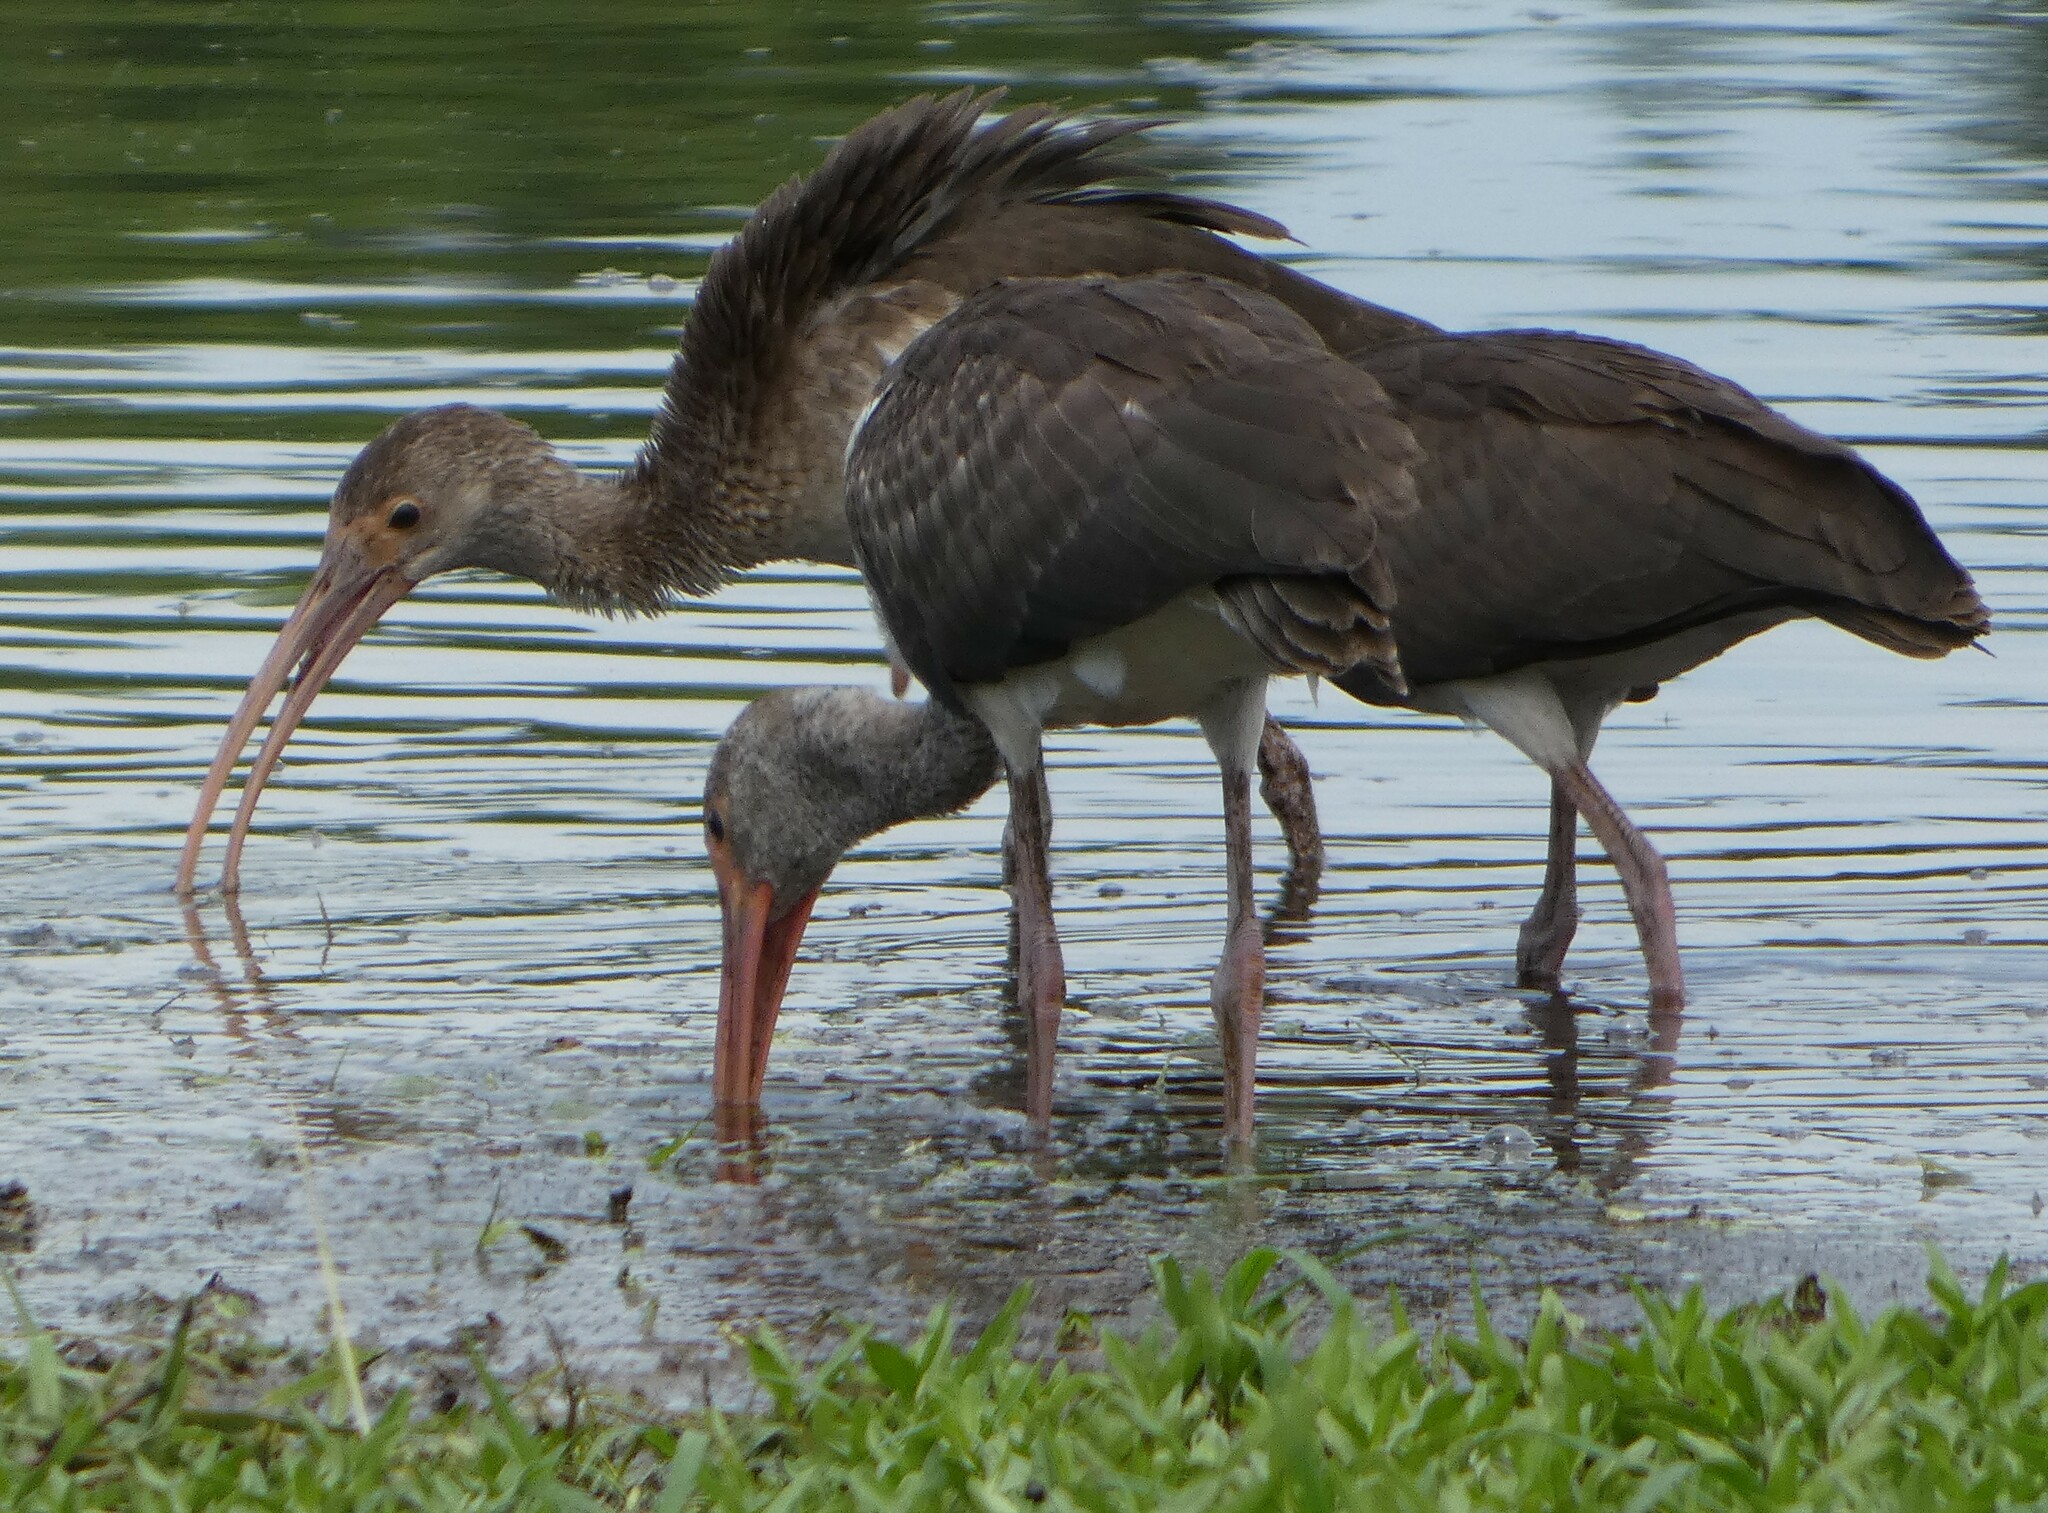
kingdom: Animalia
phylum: Chordata
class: Aves
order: Pelecaniformes
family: Threskiornithidae
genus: Eudocimus
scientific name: Eudocimus albus
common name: White ibis
